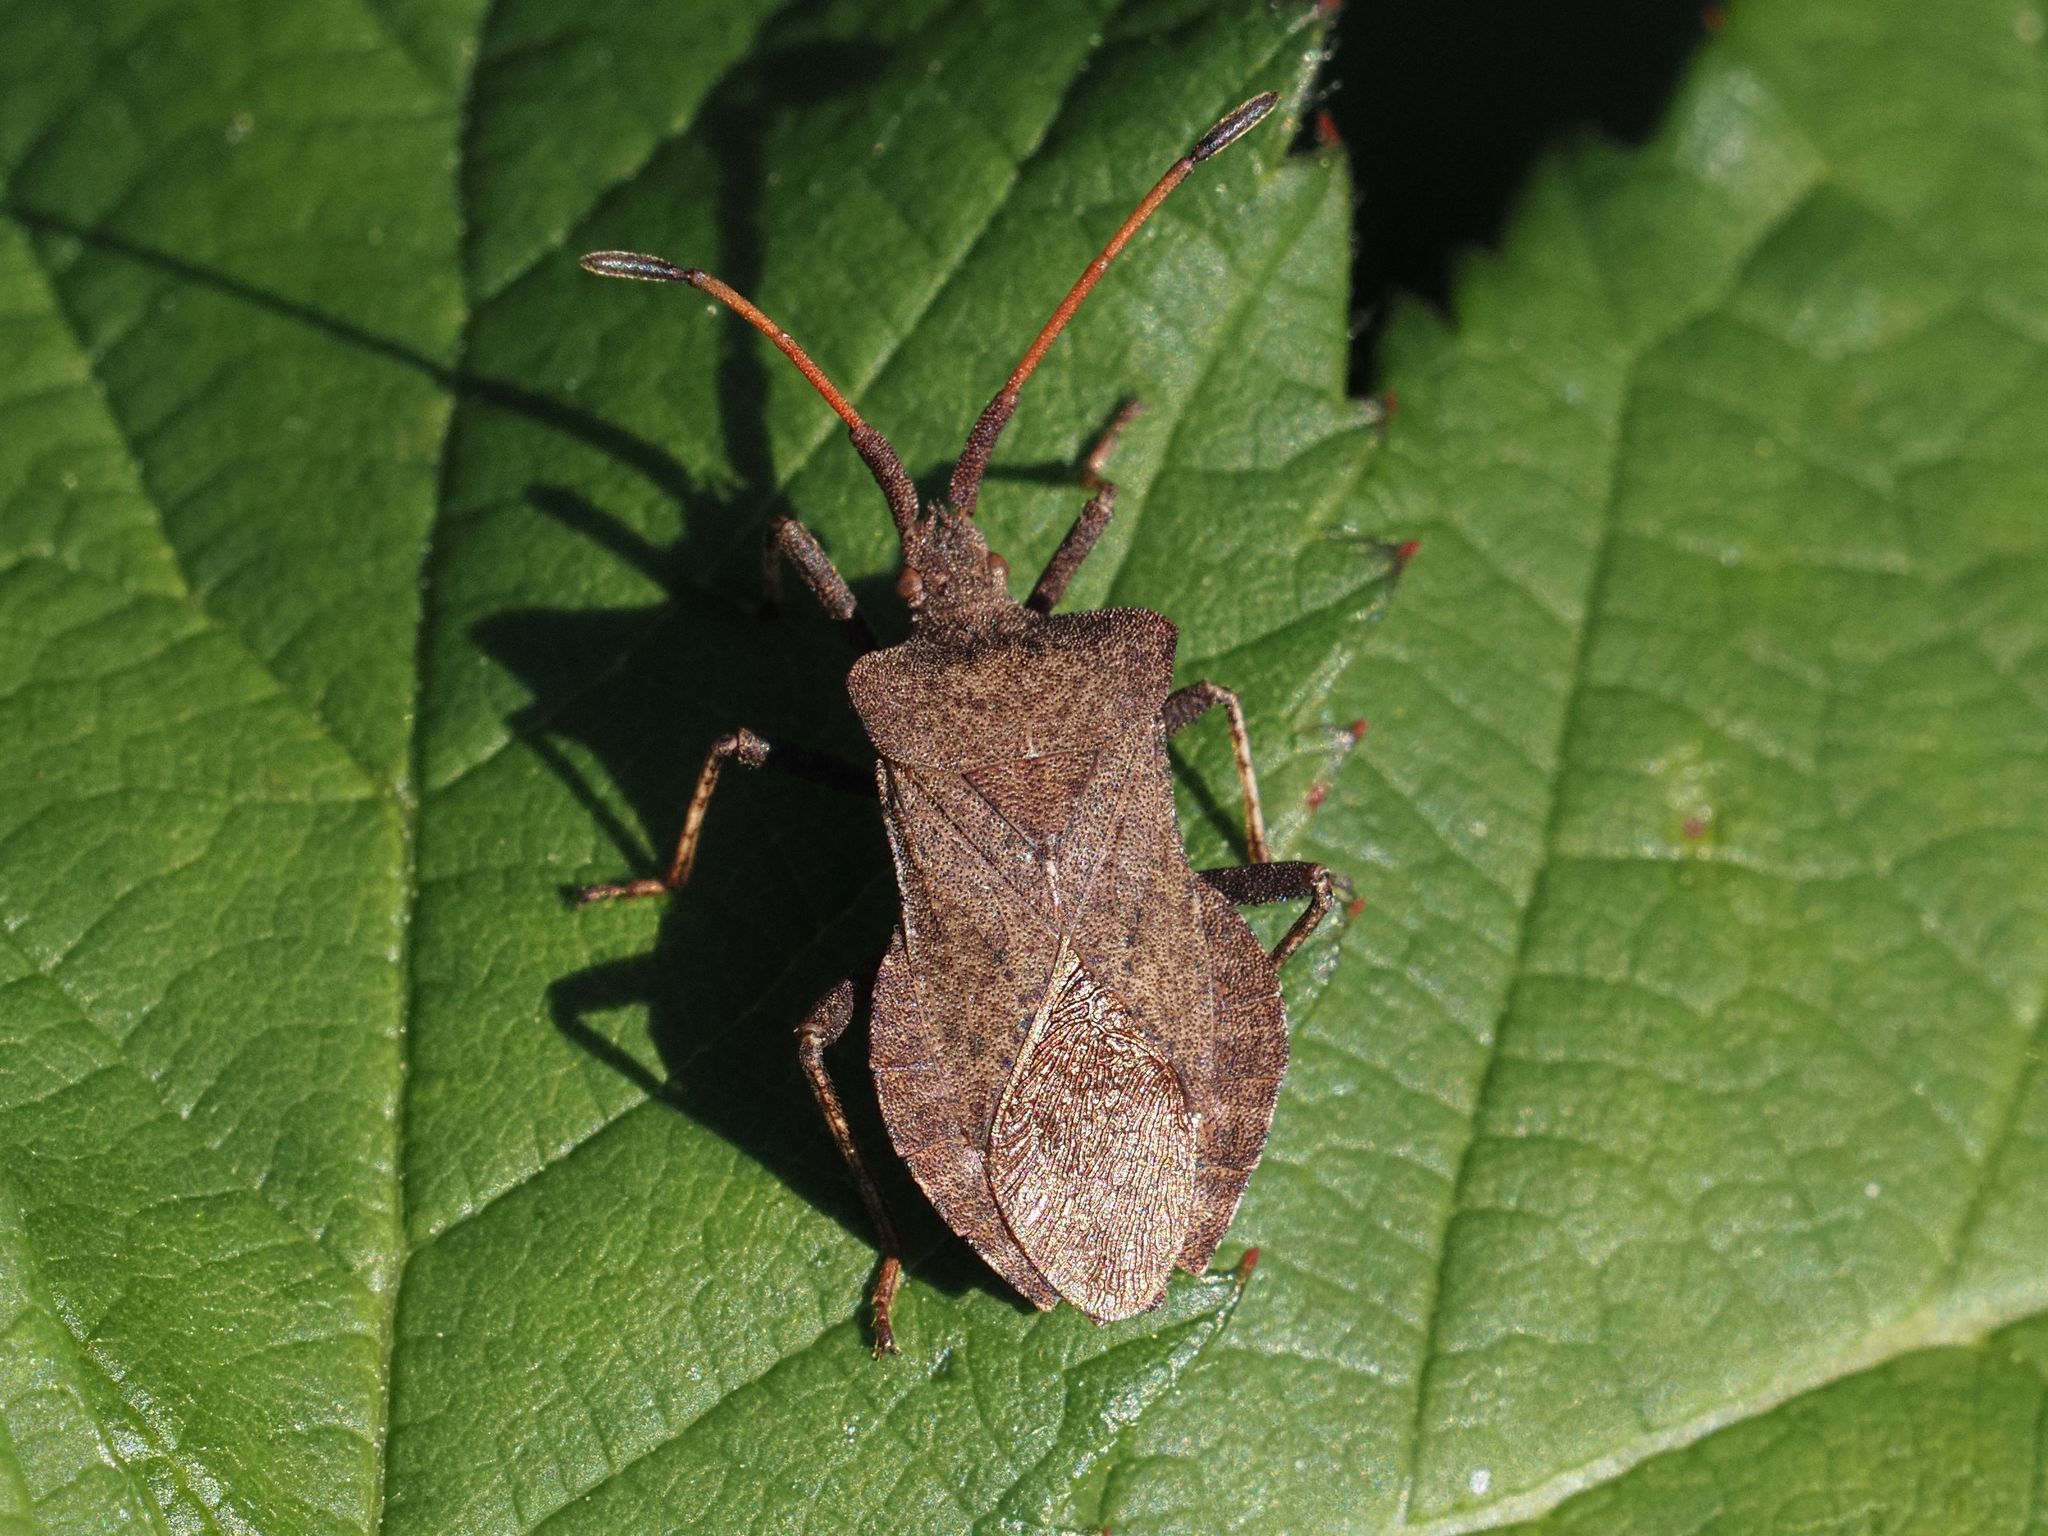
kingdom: Animalia
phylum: Arthropoda
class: Insecta
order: Hemiptera
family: Coreidae
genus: Coreus
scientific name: Coreus marginatus
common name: Dock bug
